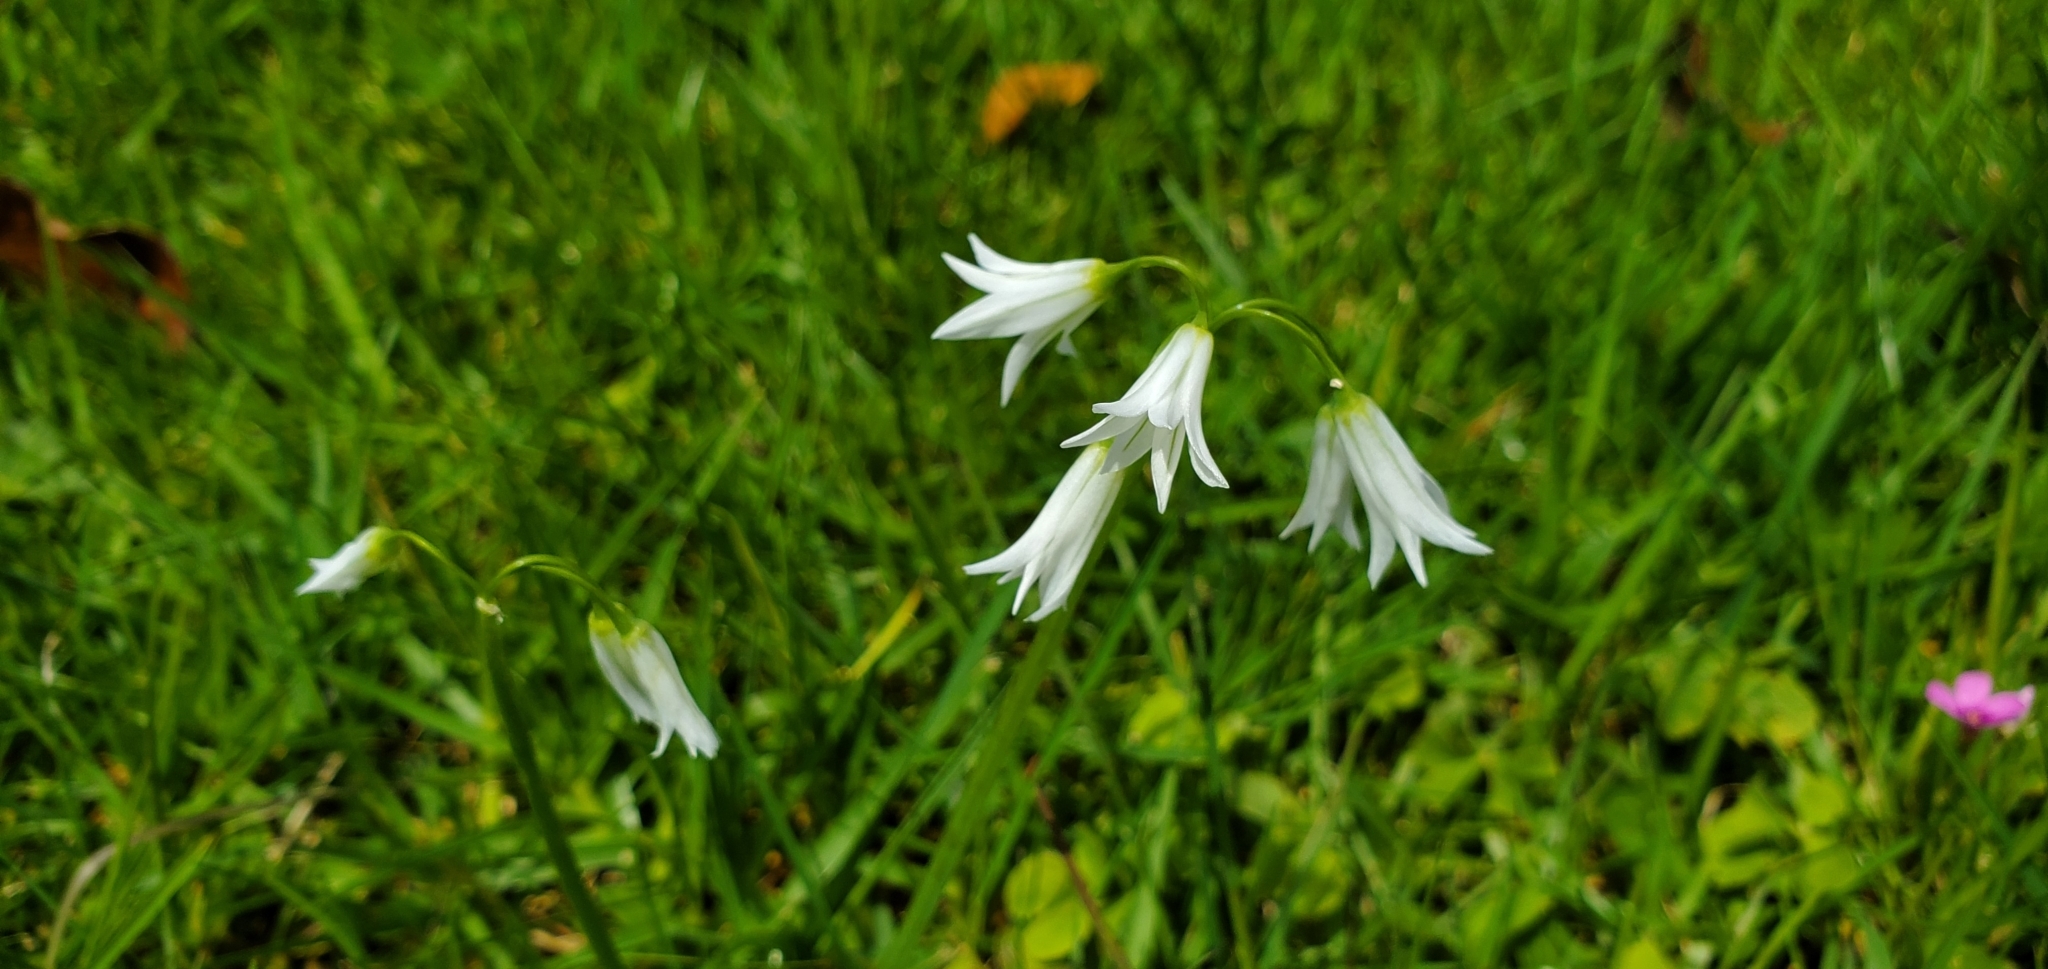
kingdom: Plantae
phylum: Tracheophyta
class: Liliopsida
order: Asparagales
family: Amaryllidaceae
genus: Allium
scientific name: Allium triquetrum
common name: Three-cornered garlic
